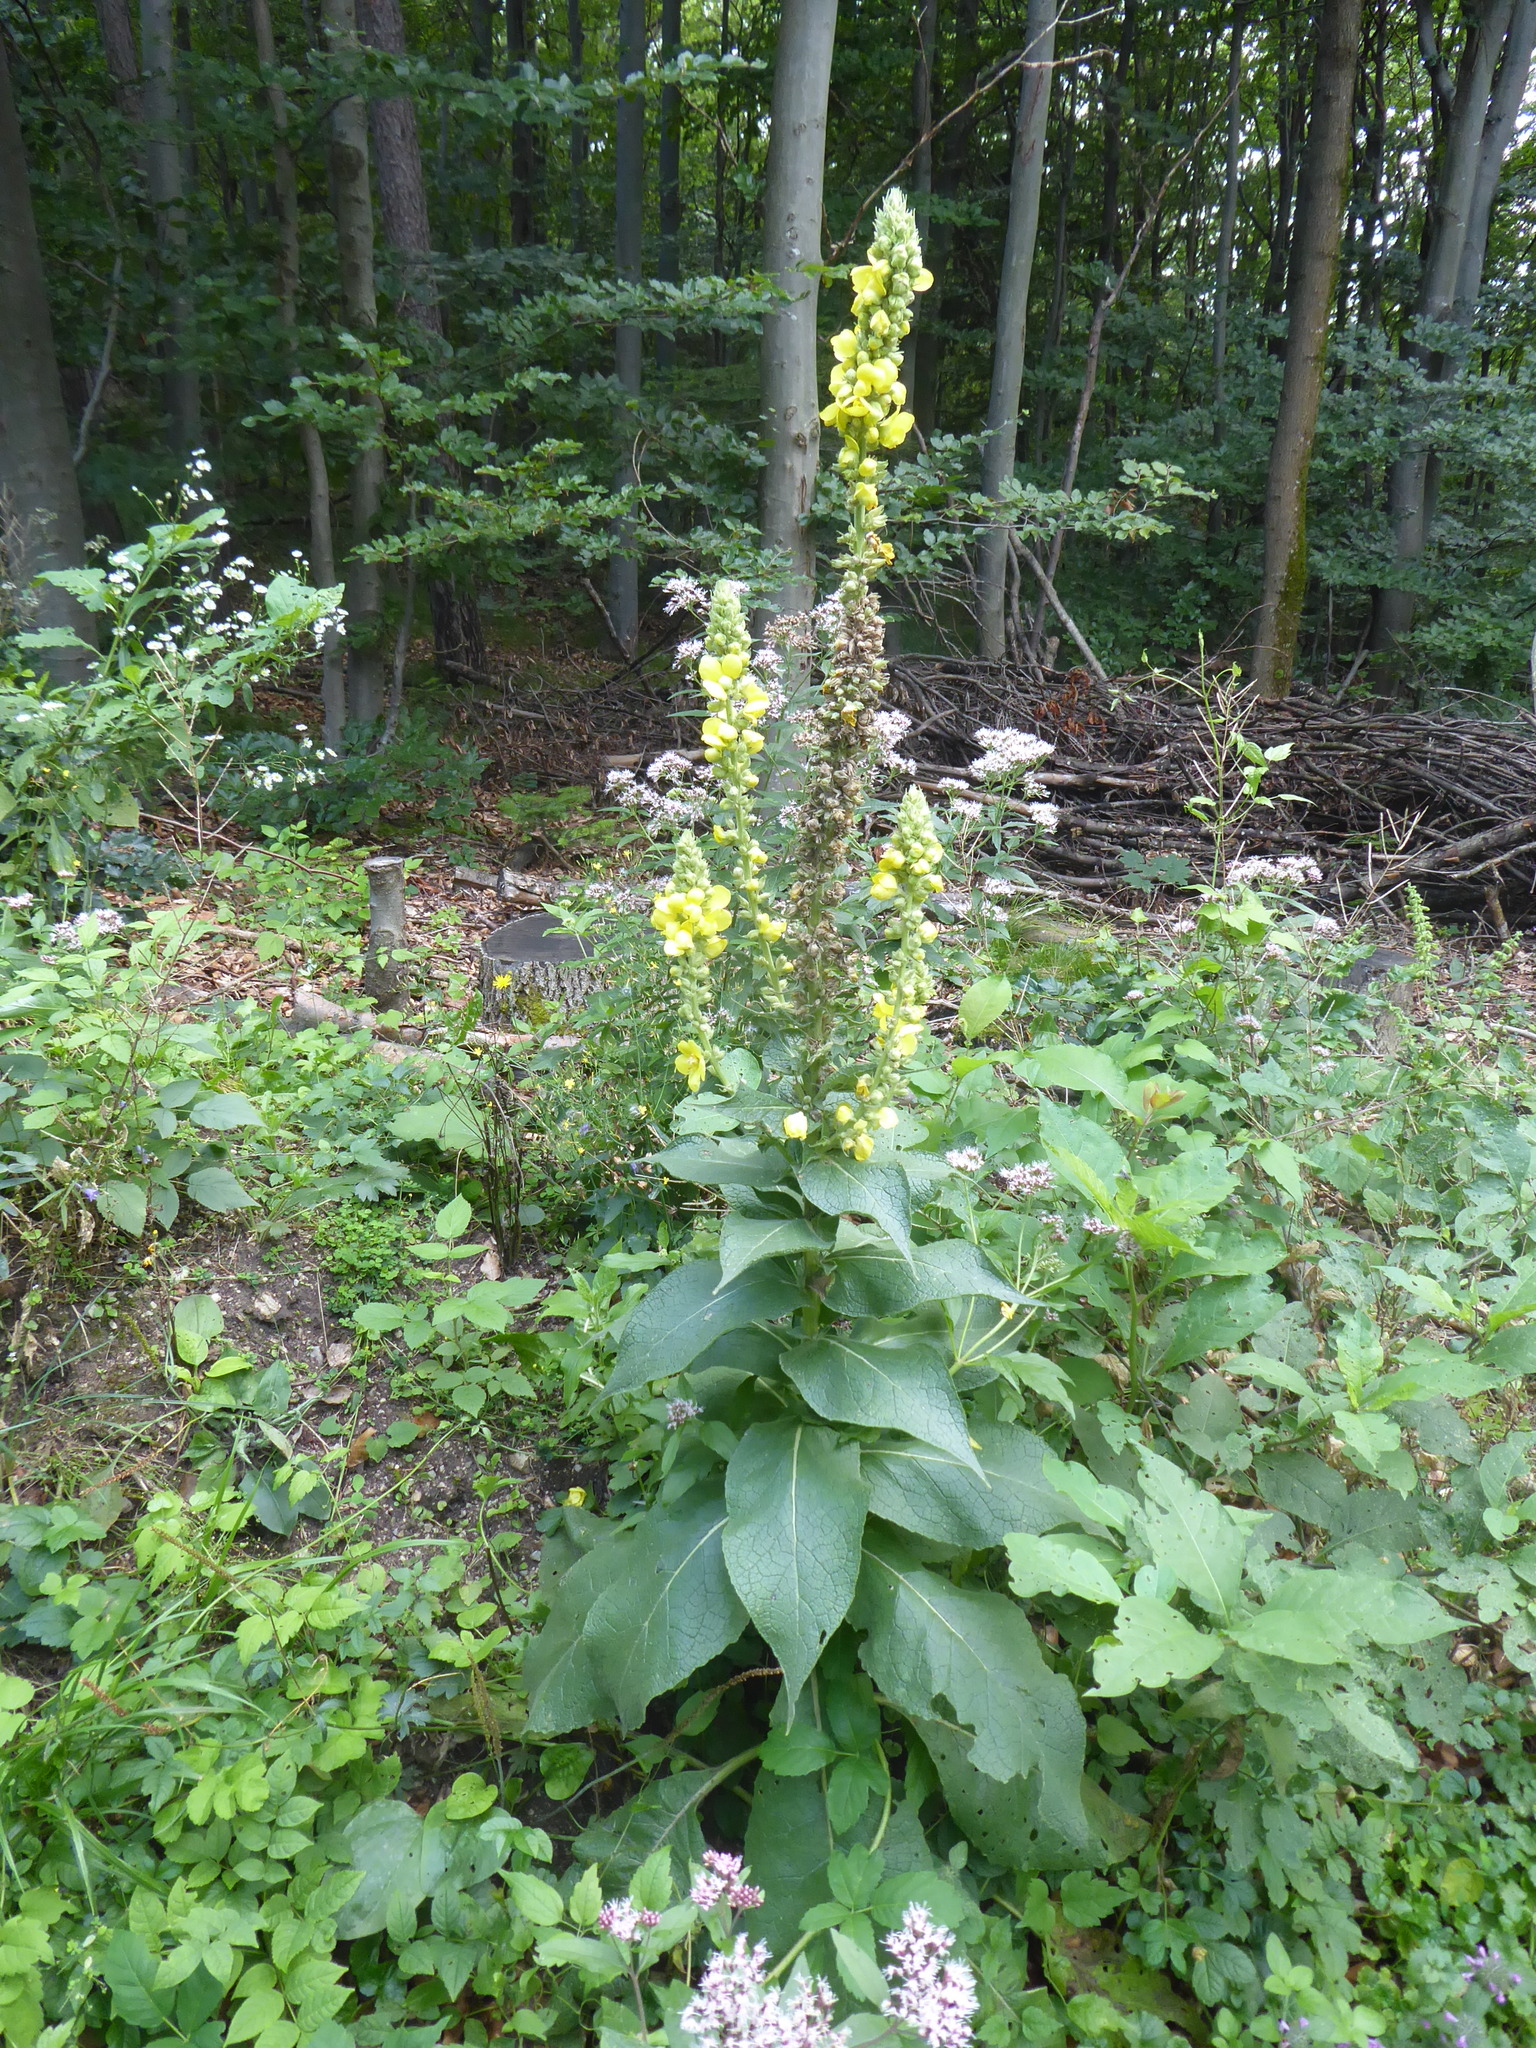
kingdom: Plantae
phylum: Tracheophyta
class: Magnoliopsida
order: Lamiales
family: Scrophulariaceae
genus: Verbascum
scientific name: Verbascum phlomoides
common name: Orange mullein
